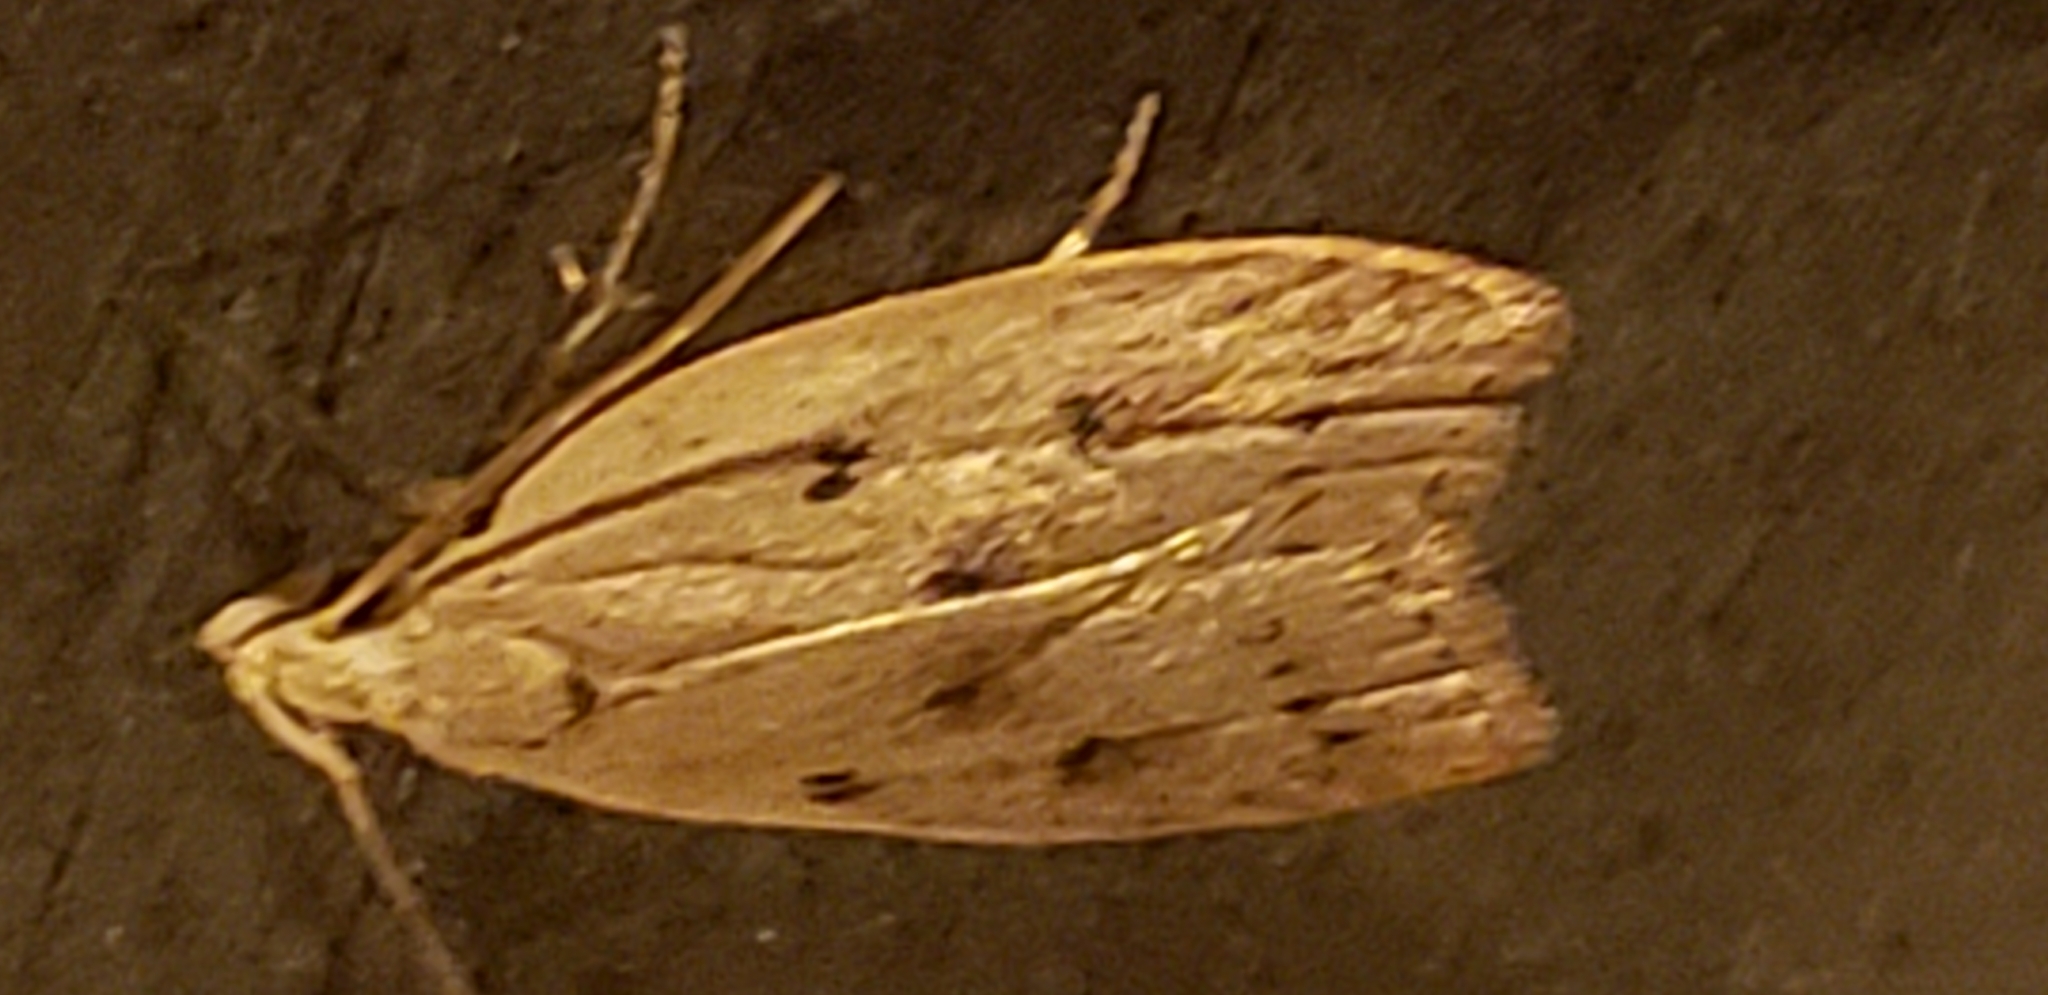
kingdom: Animalia
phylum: Arthropoda
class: Insecta
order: Lepidoptera
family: Peleopodidae
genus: Machimia
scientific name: Machimia tentoriferella
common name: Gold-striped leaftier moth
